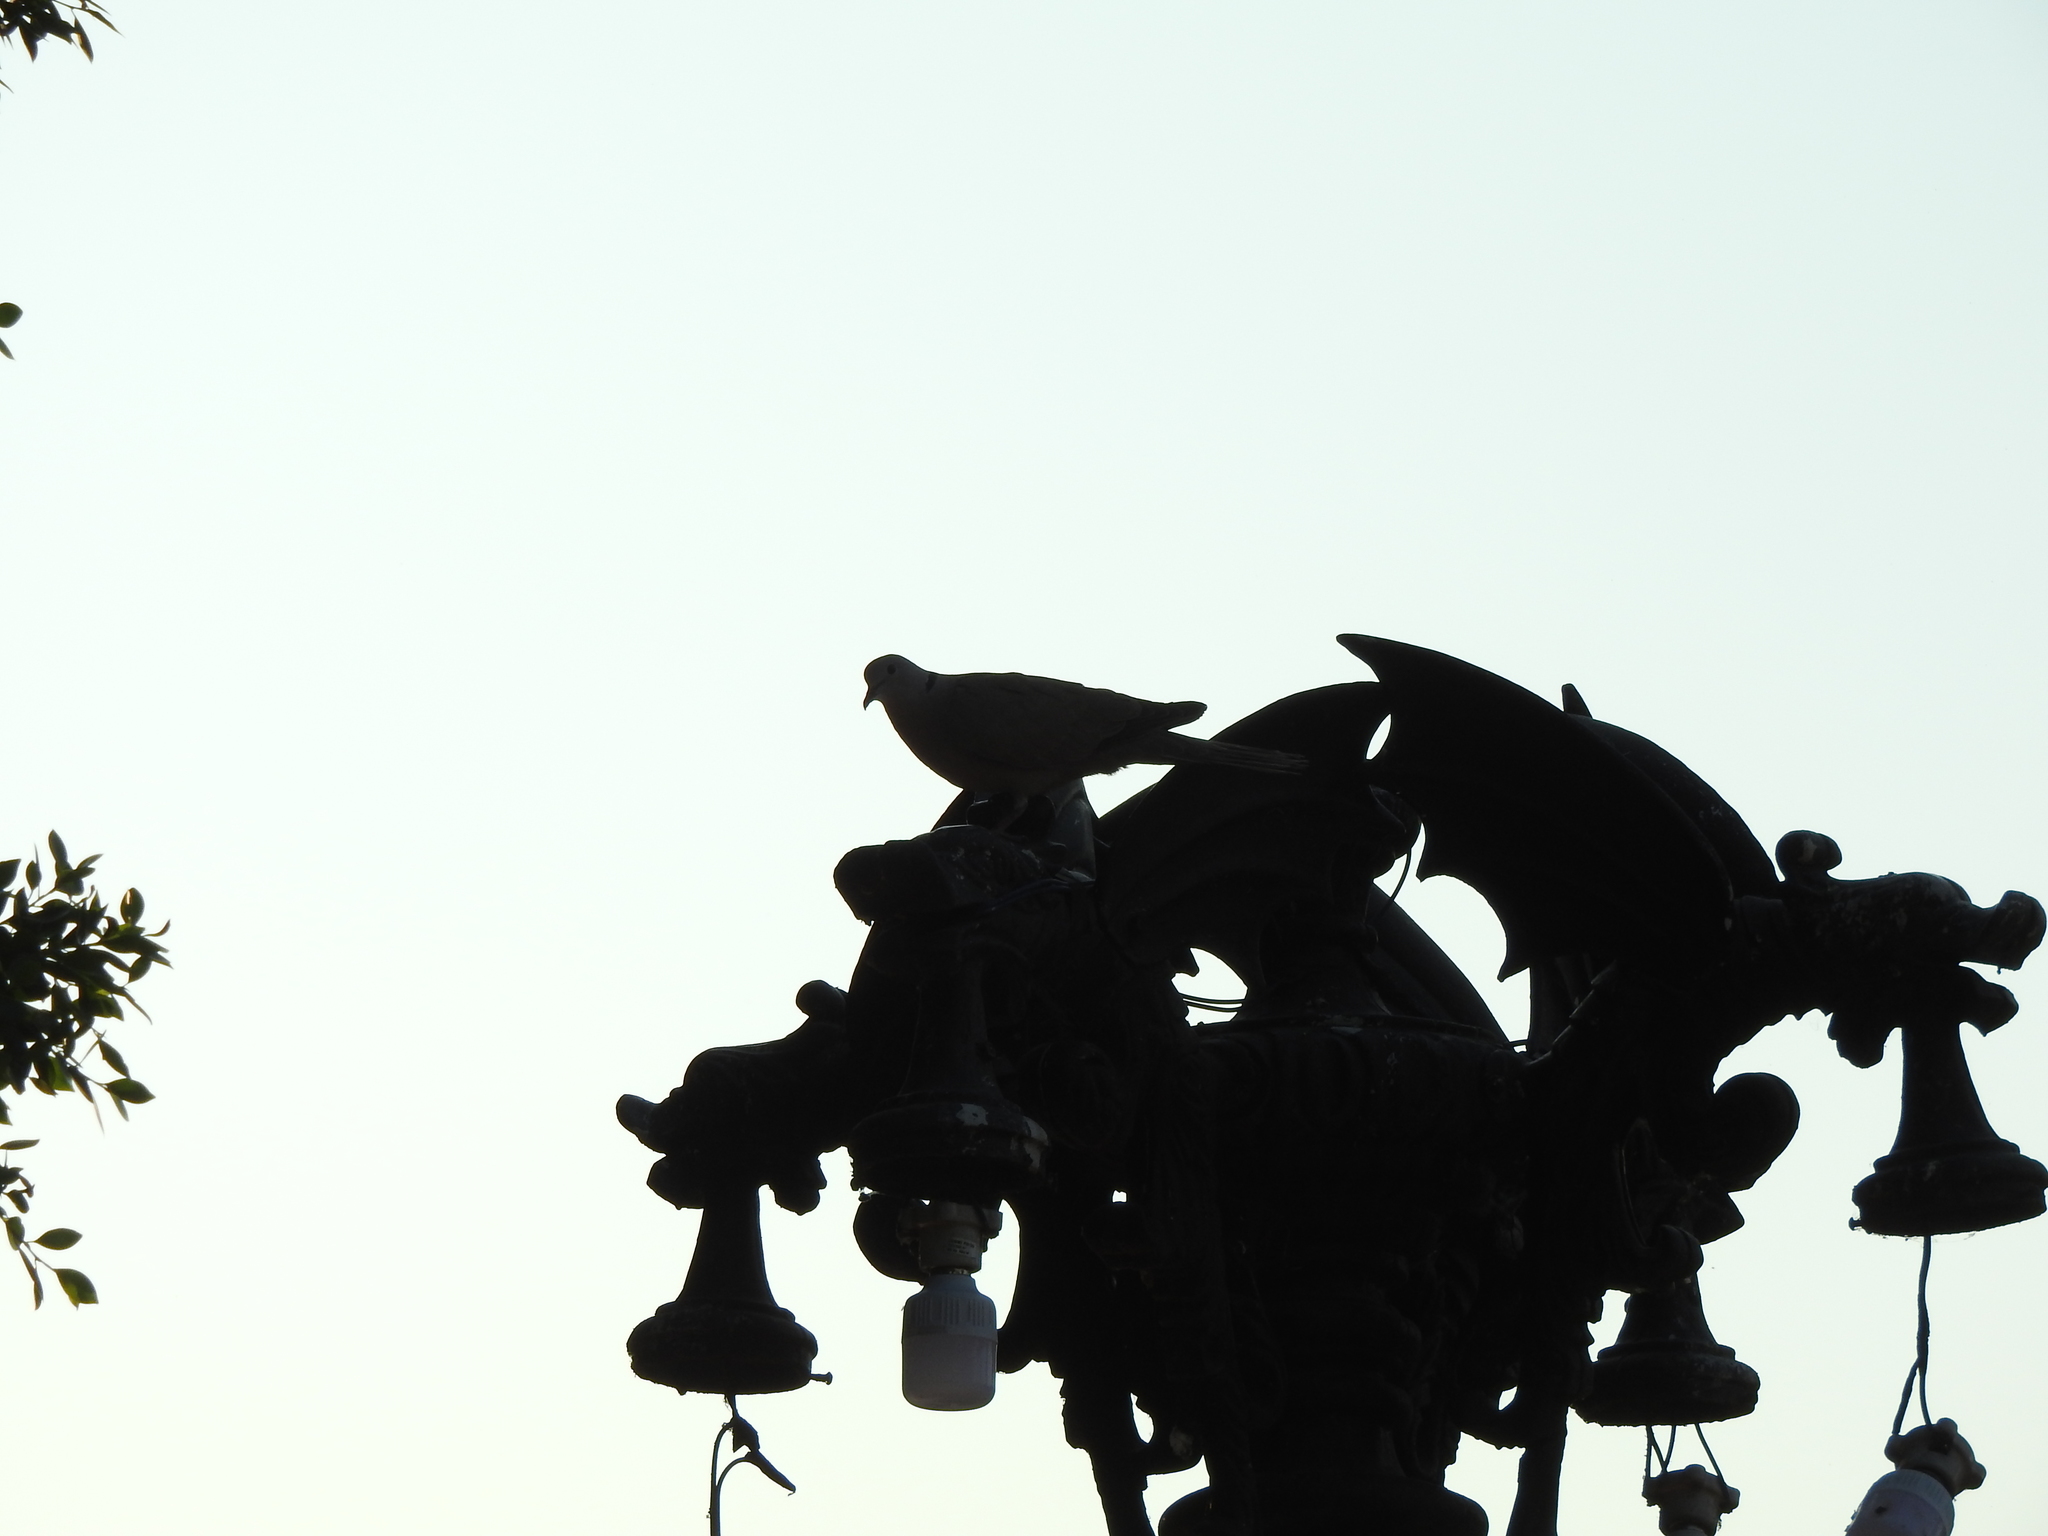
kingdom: Animalia
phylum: Chordata
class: Aves
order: Columbiformes
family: Columbidae
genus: Streptopelia
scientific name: Streptopelia decaocto
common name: Eurasian collared dove
